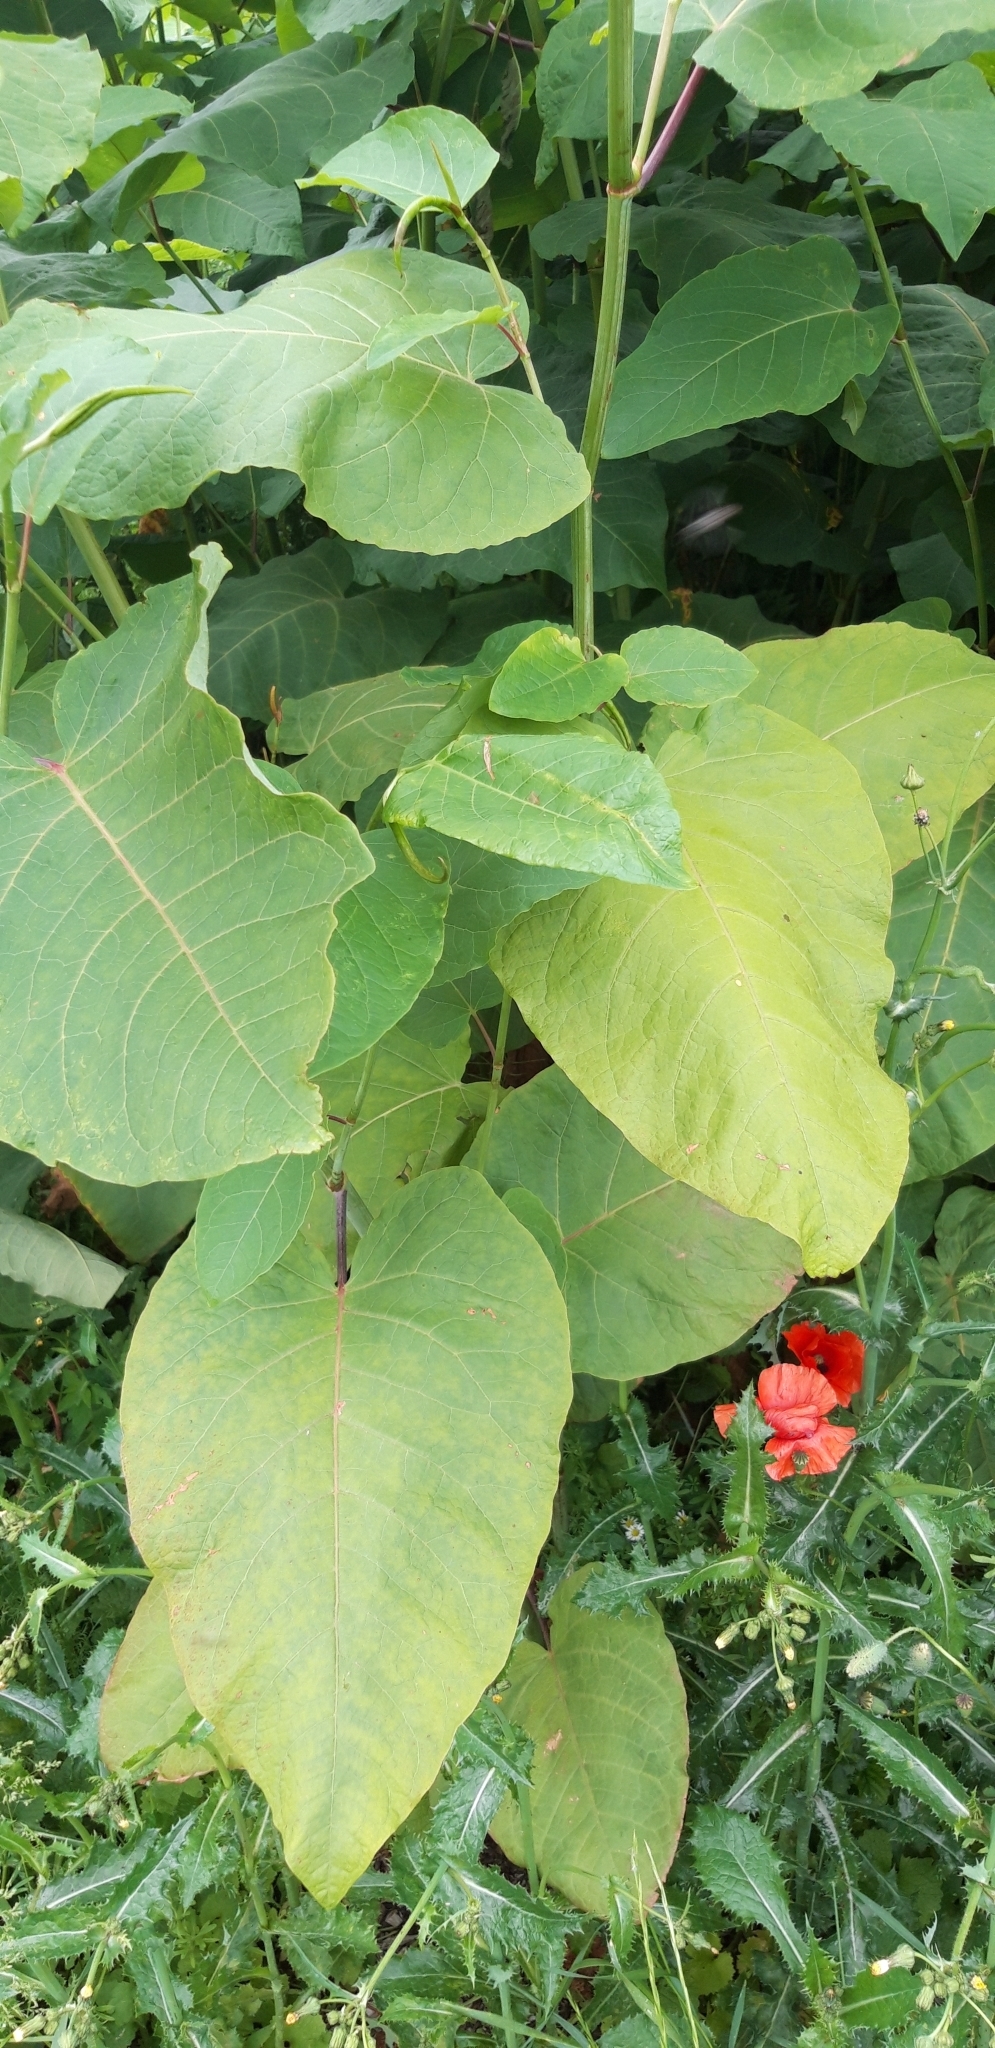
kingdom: Plantae
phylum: Tracheophyta
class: Magnoliopsida
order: Caryophyllales
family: Polygonaceae
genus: Reynoutria
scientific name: Reynoutria sachalinensis
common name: Giant knotweed
